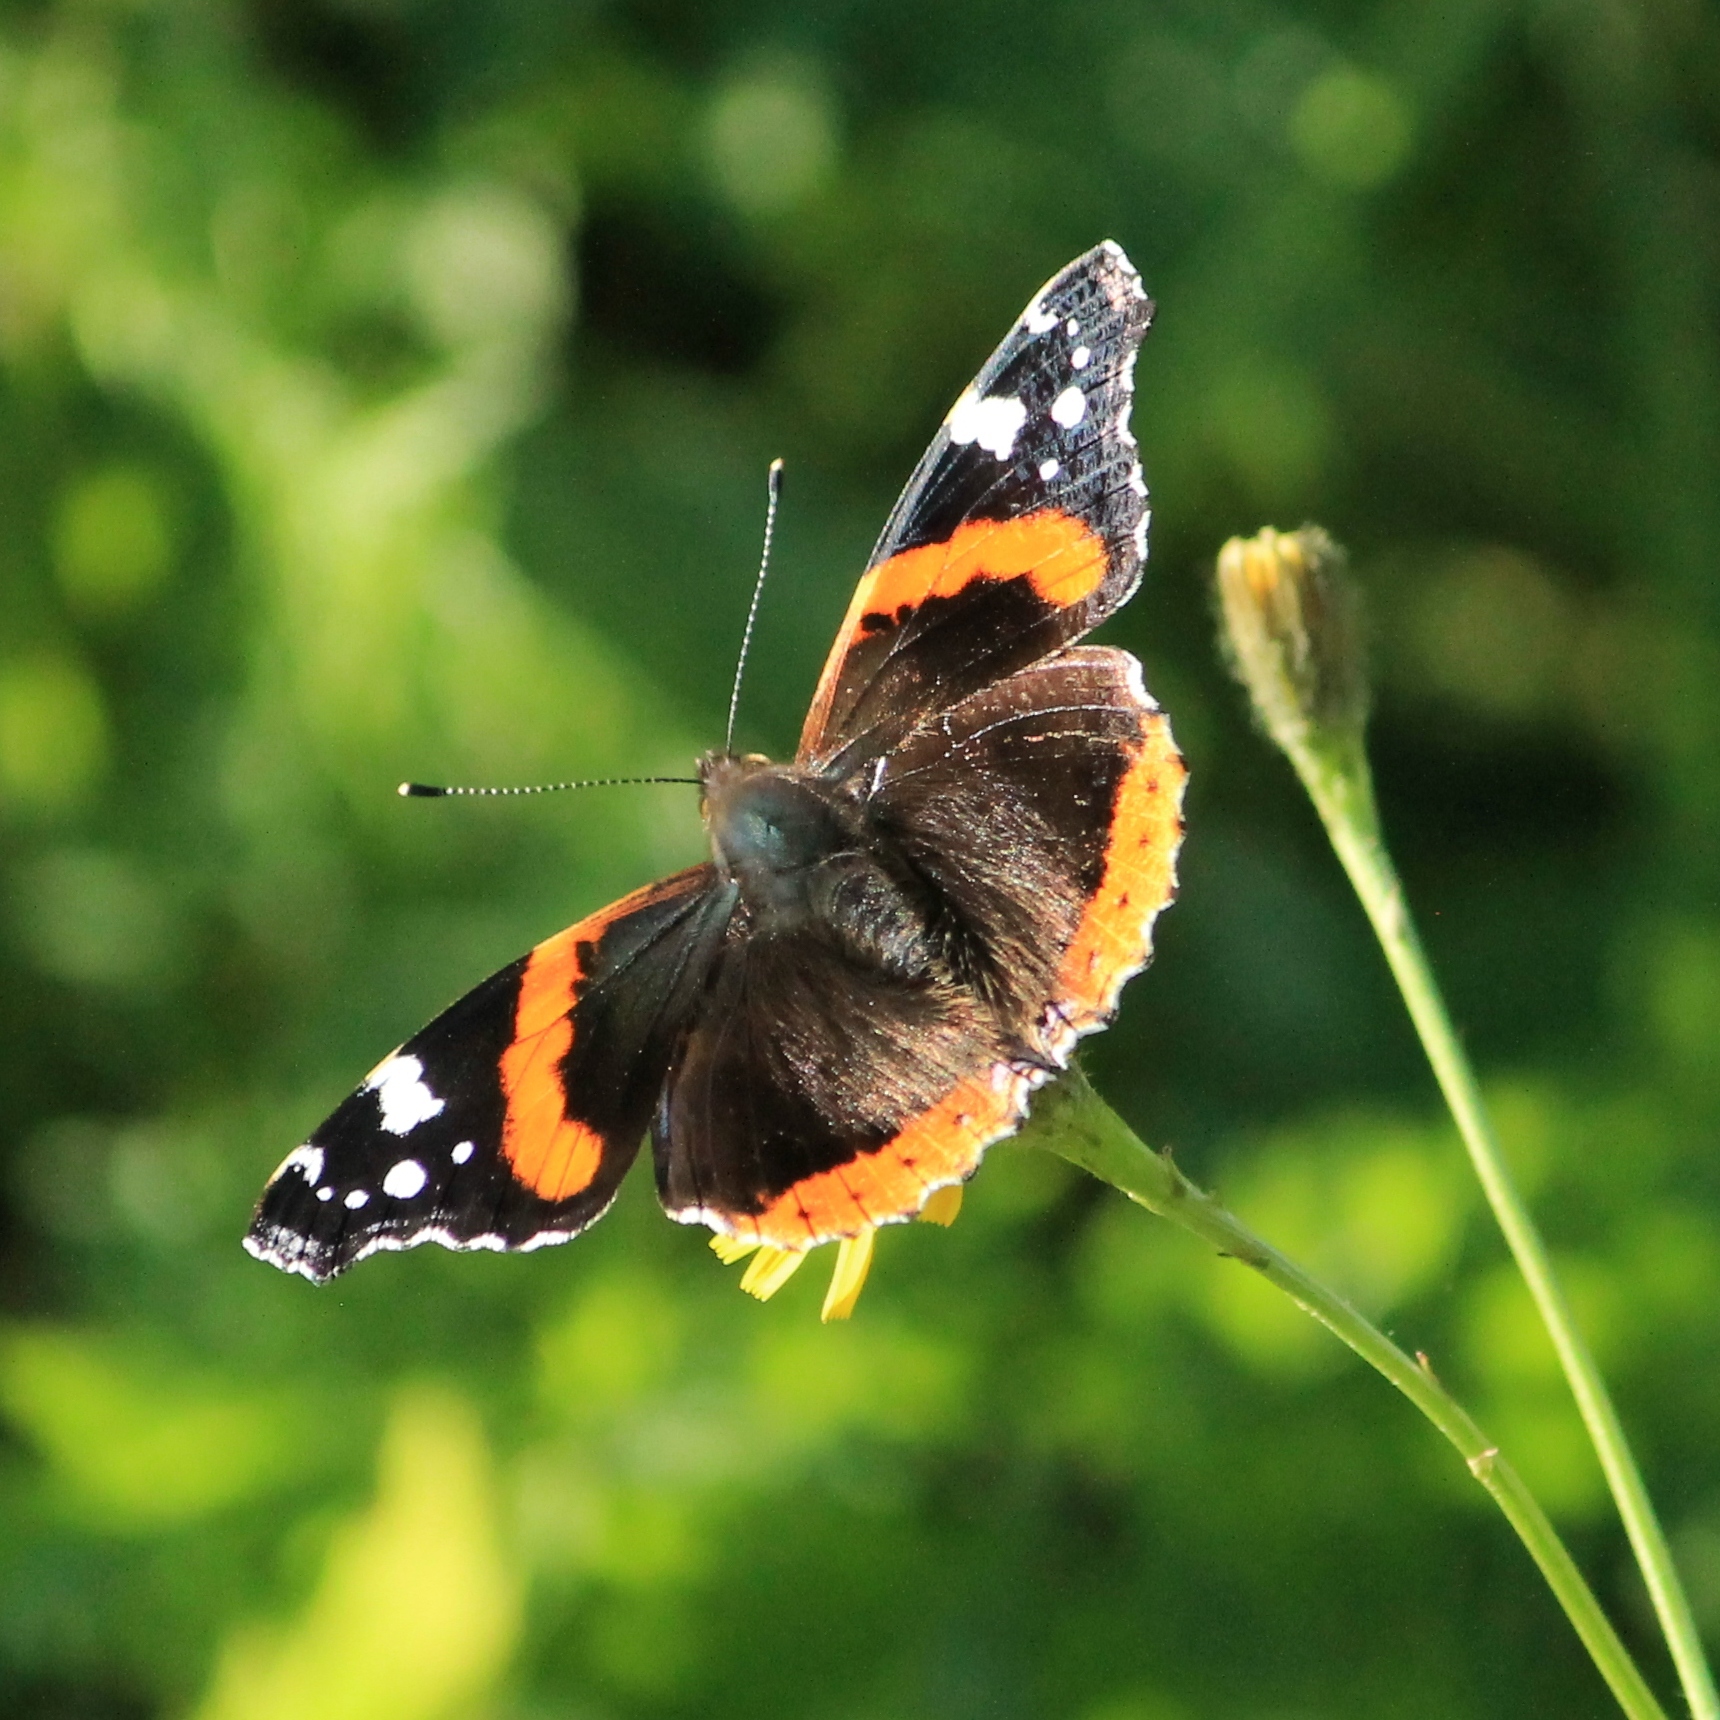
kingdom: Animalia
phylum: Arthropoda
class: Insecta
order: Lepidoptera
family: Nymphalidae
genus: Vanessa
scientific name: Vanessa atalanta
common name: Red admiral
